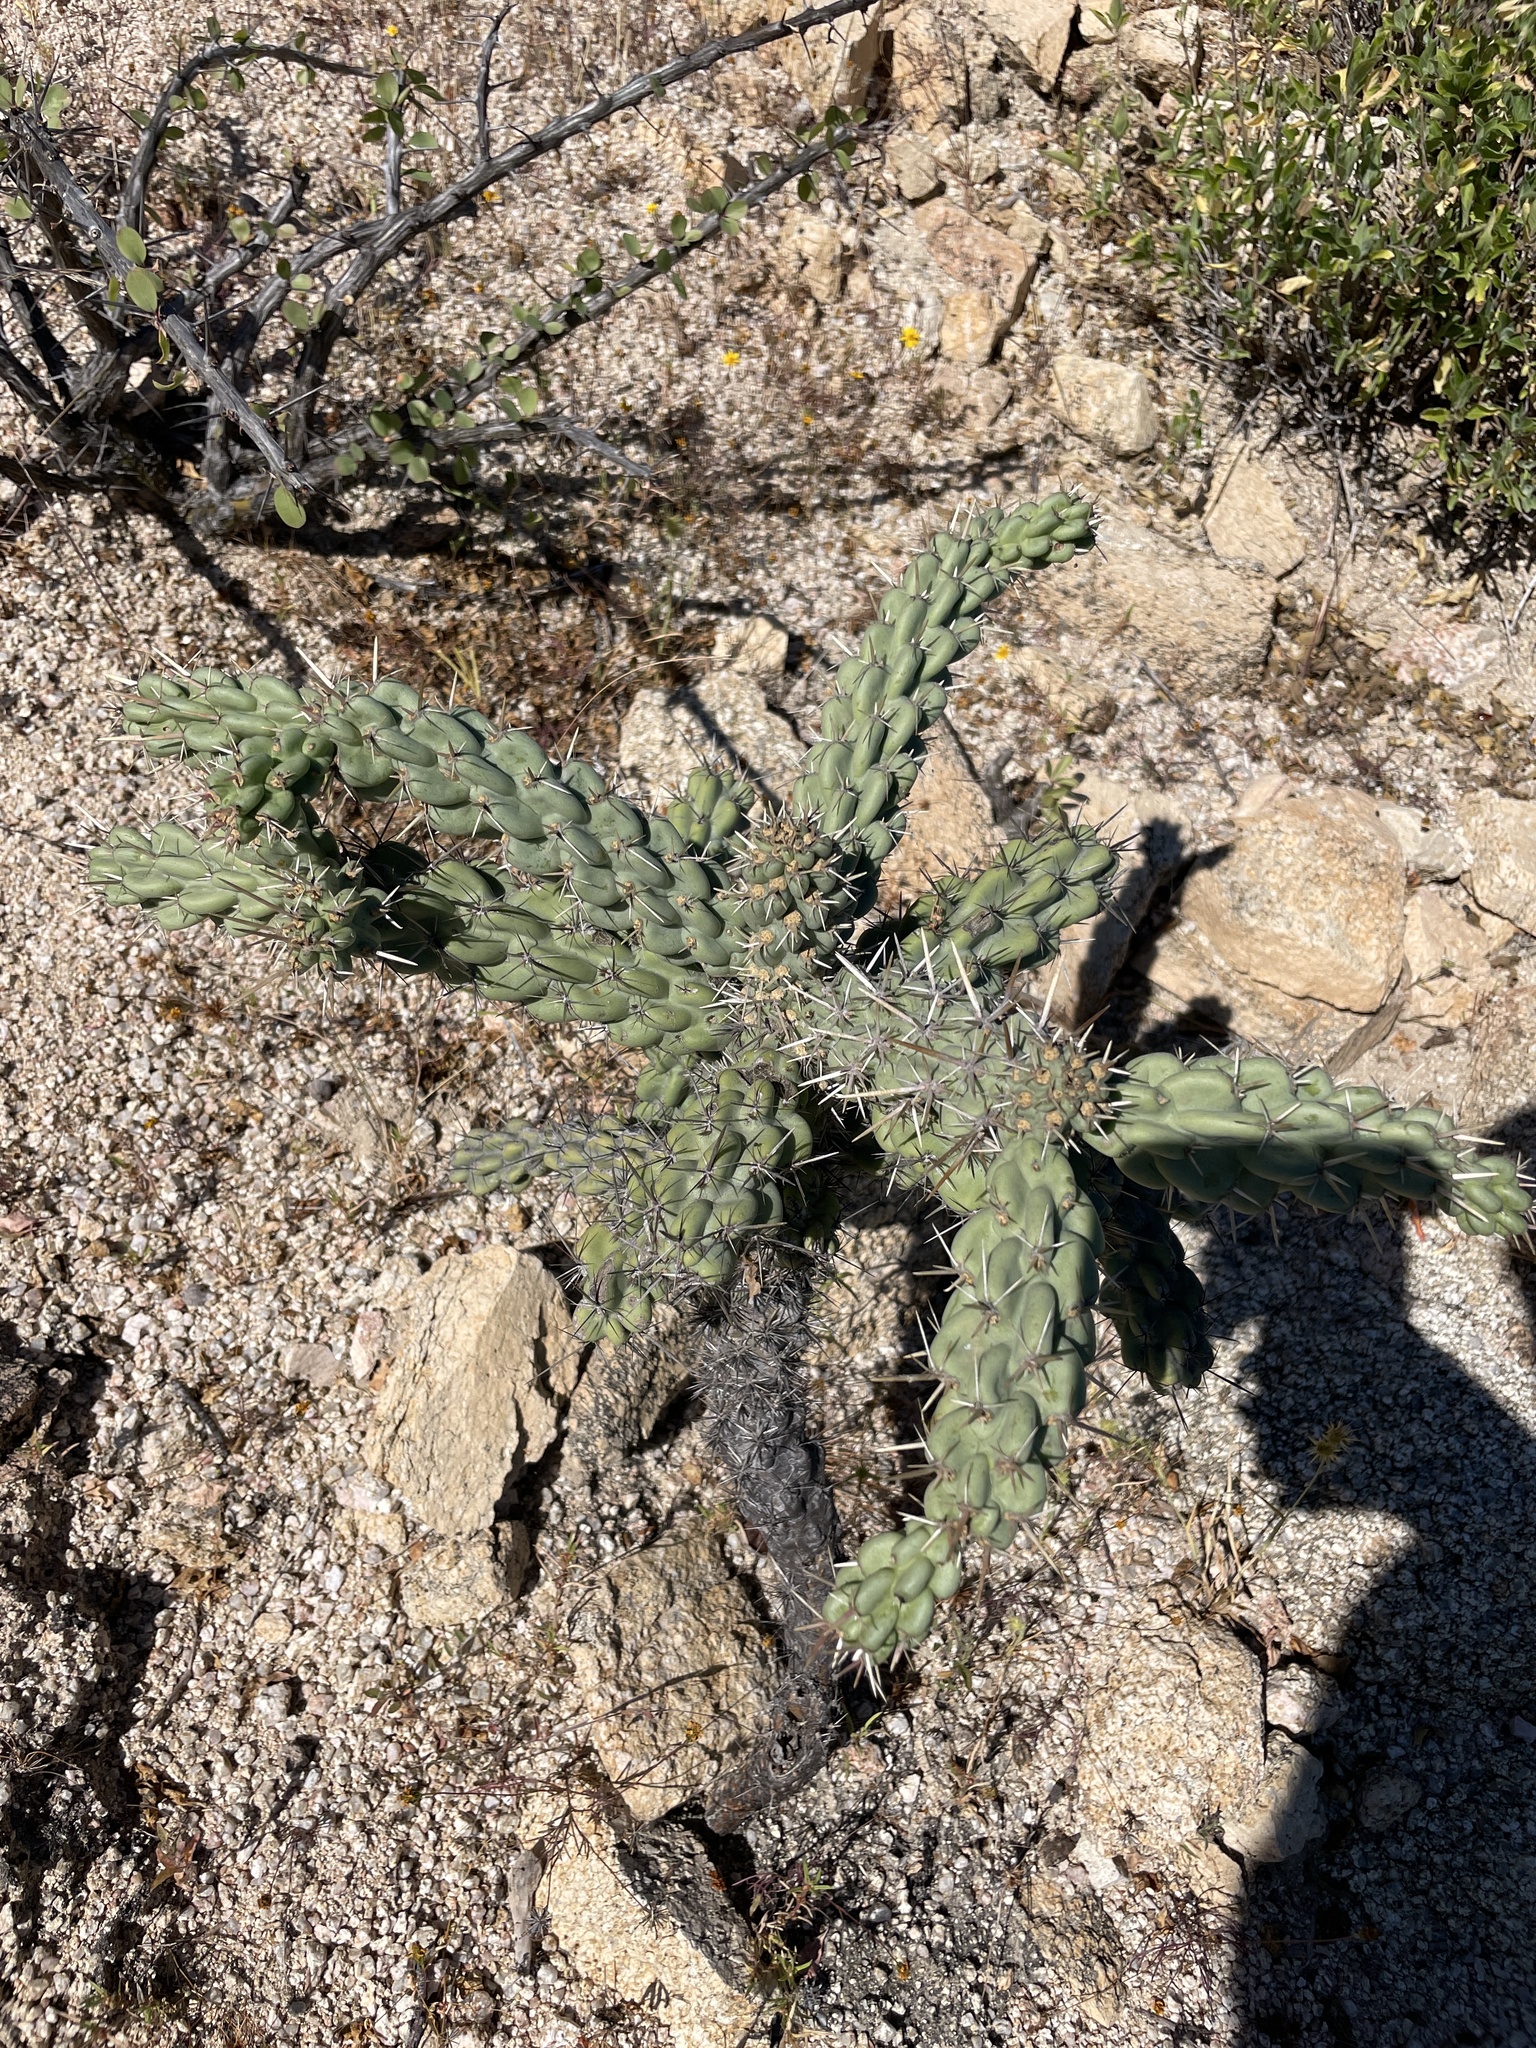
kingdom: Plantae
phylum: Tracheophyta
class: Magnoliopsida
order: Caryophyllales
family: Cactaceae
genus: Cylindropuntia
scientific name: Cylindropuntia cholla
